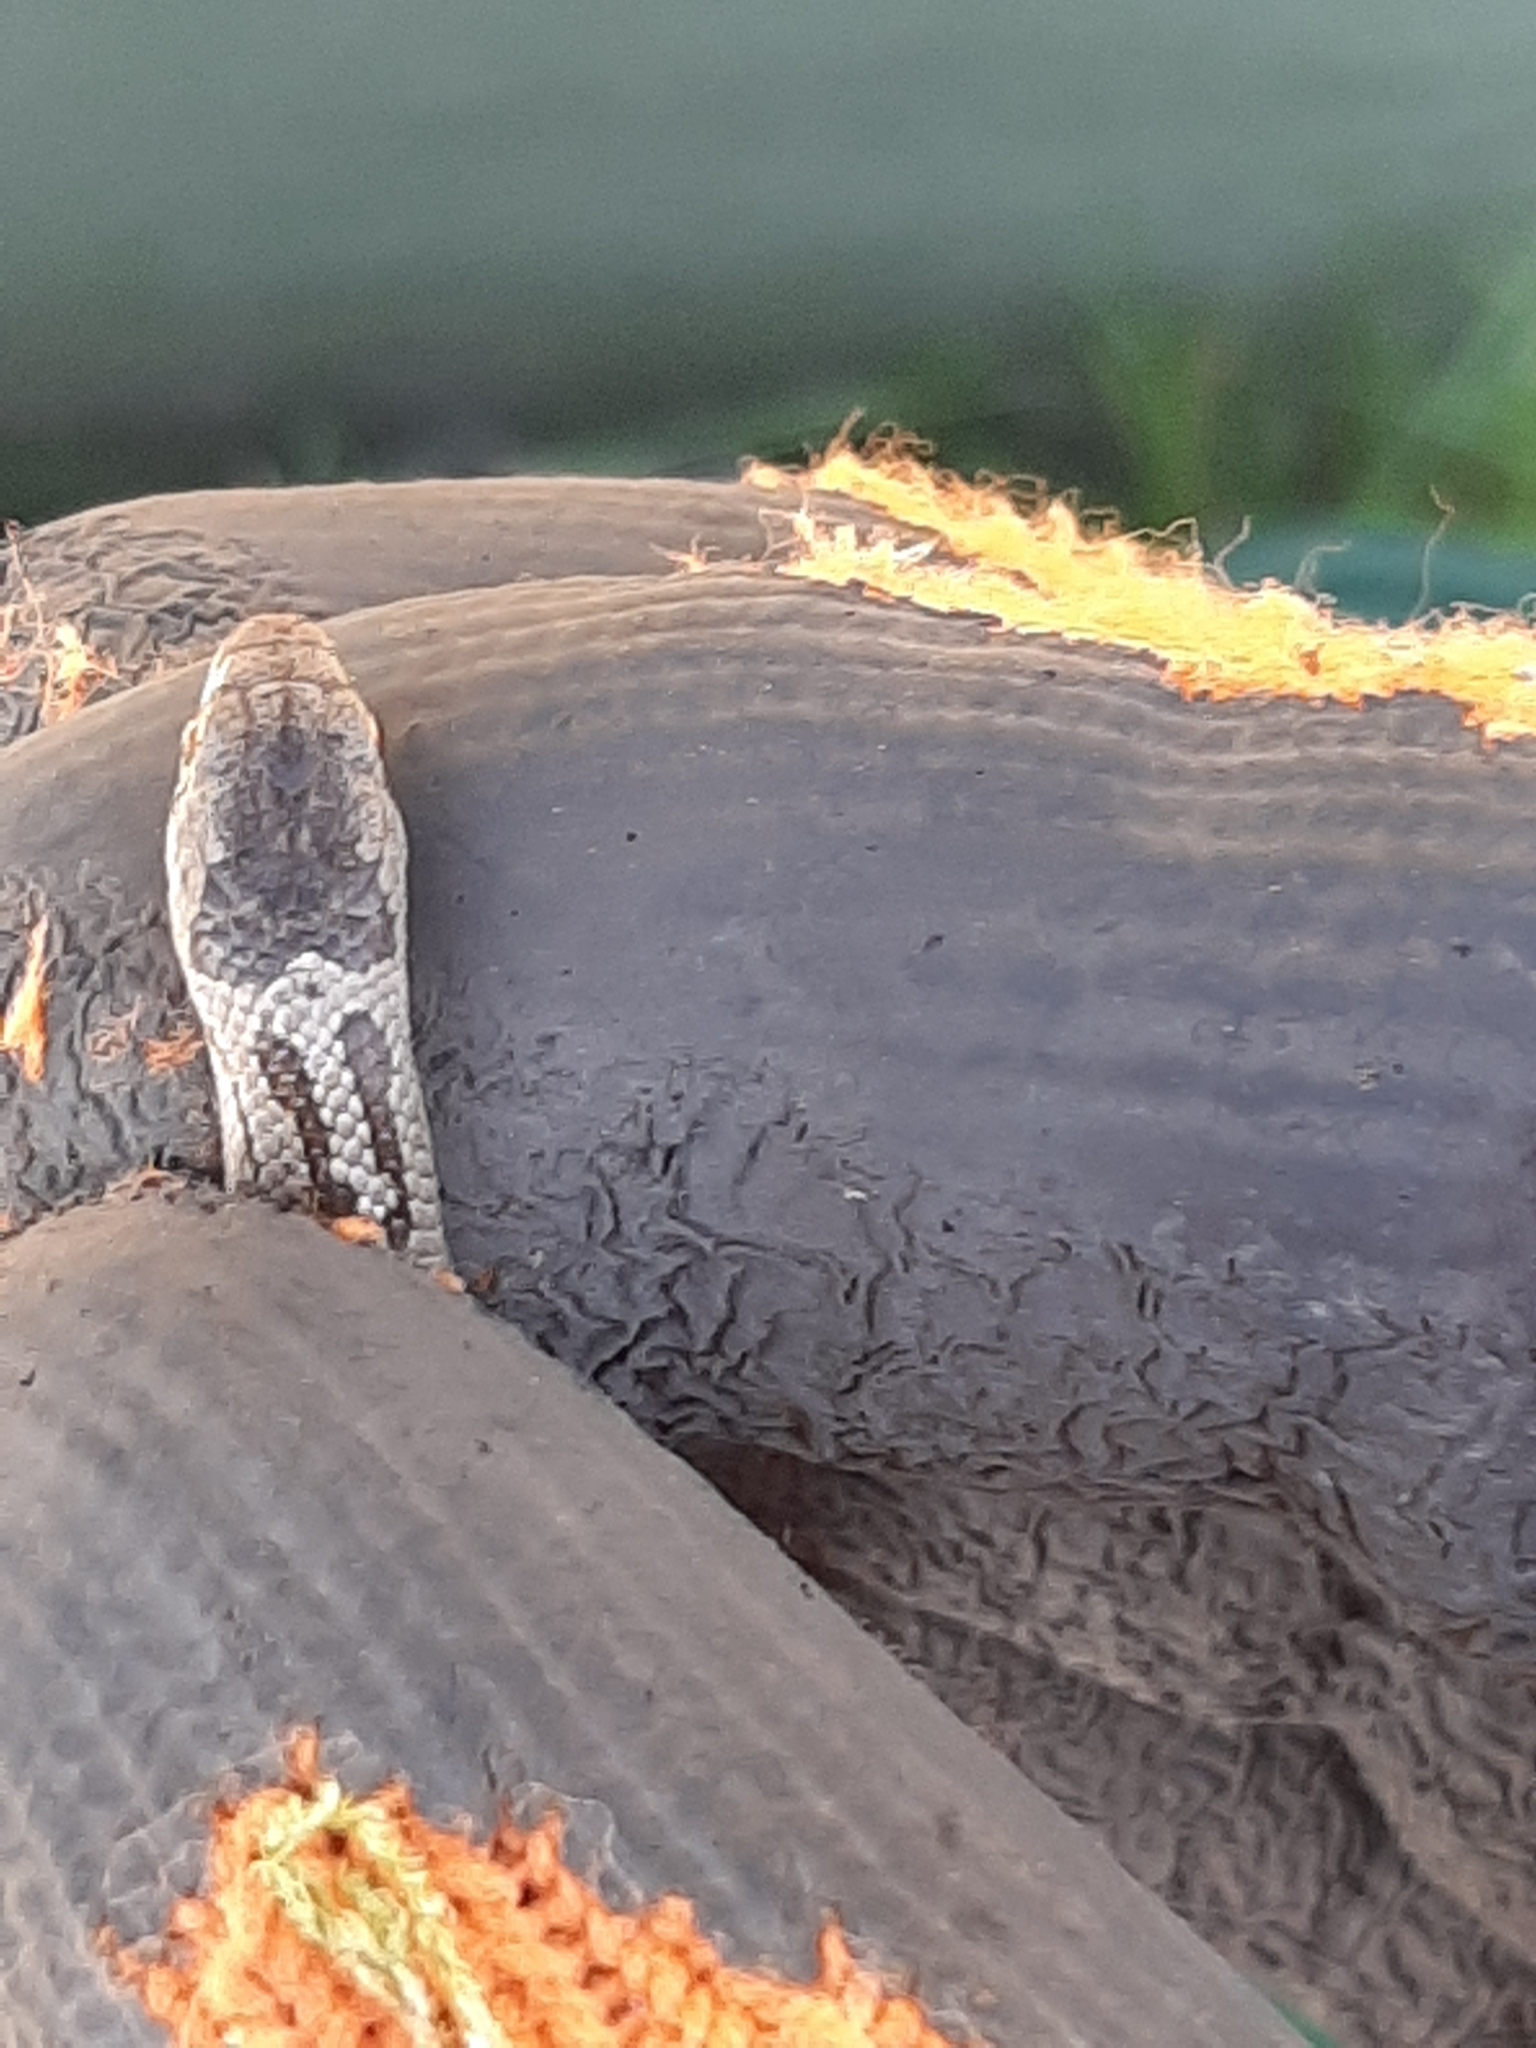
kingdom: Animalia
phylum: Chordata
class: Squamata
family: Colubridae
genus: Coronella
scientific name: Coronella austriaca
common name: Smooth snake
